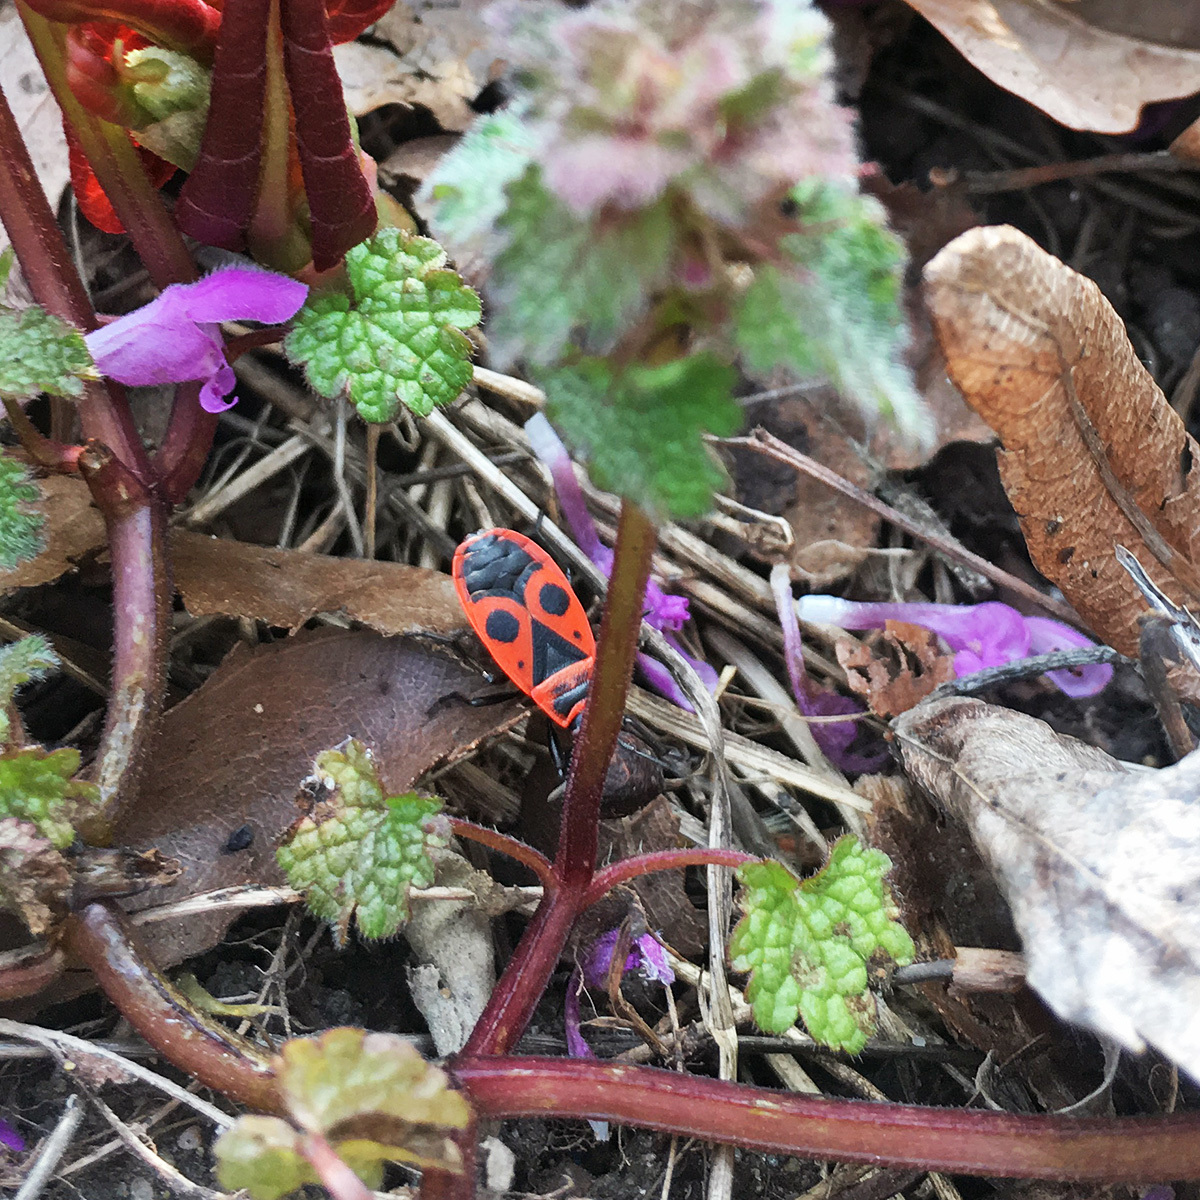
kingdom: Animalia
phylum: Arthropoda
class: Insecta
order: Hemiptera
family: Pyrrhocoridae
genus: Pyrrhocoris
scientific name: Pyrrhocoris apterus
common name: Firebug
